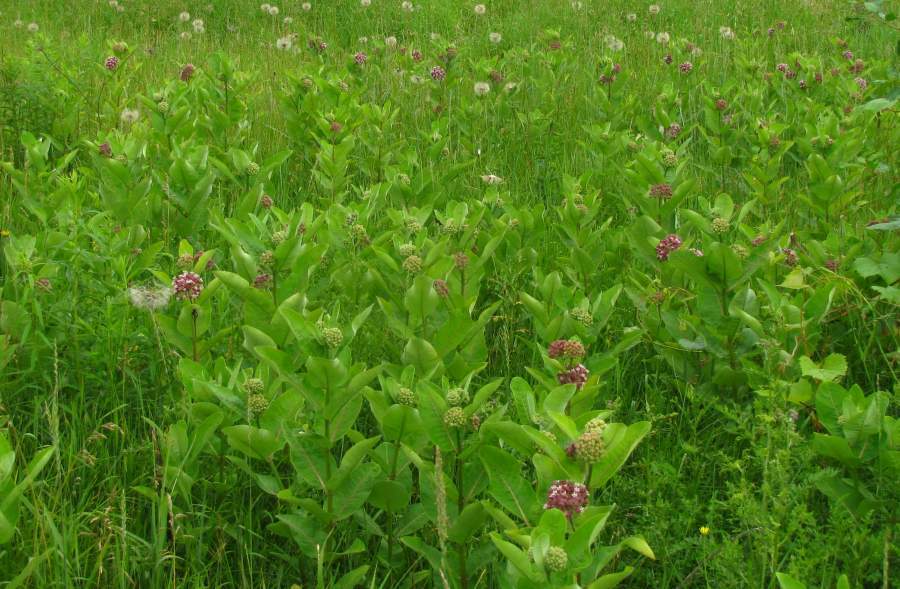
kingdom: Plantae
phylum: Tracheophyta
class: Magnoliopsida
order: Gentianales
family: Apocynaceae
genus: Asclepias
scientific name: Asclepias syriaca
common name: Common milkweed
